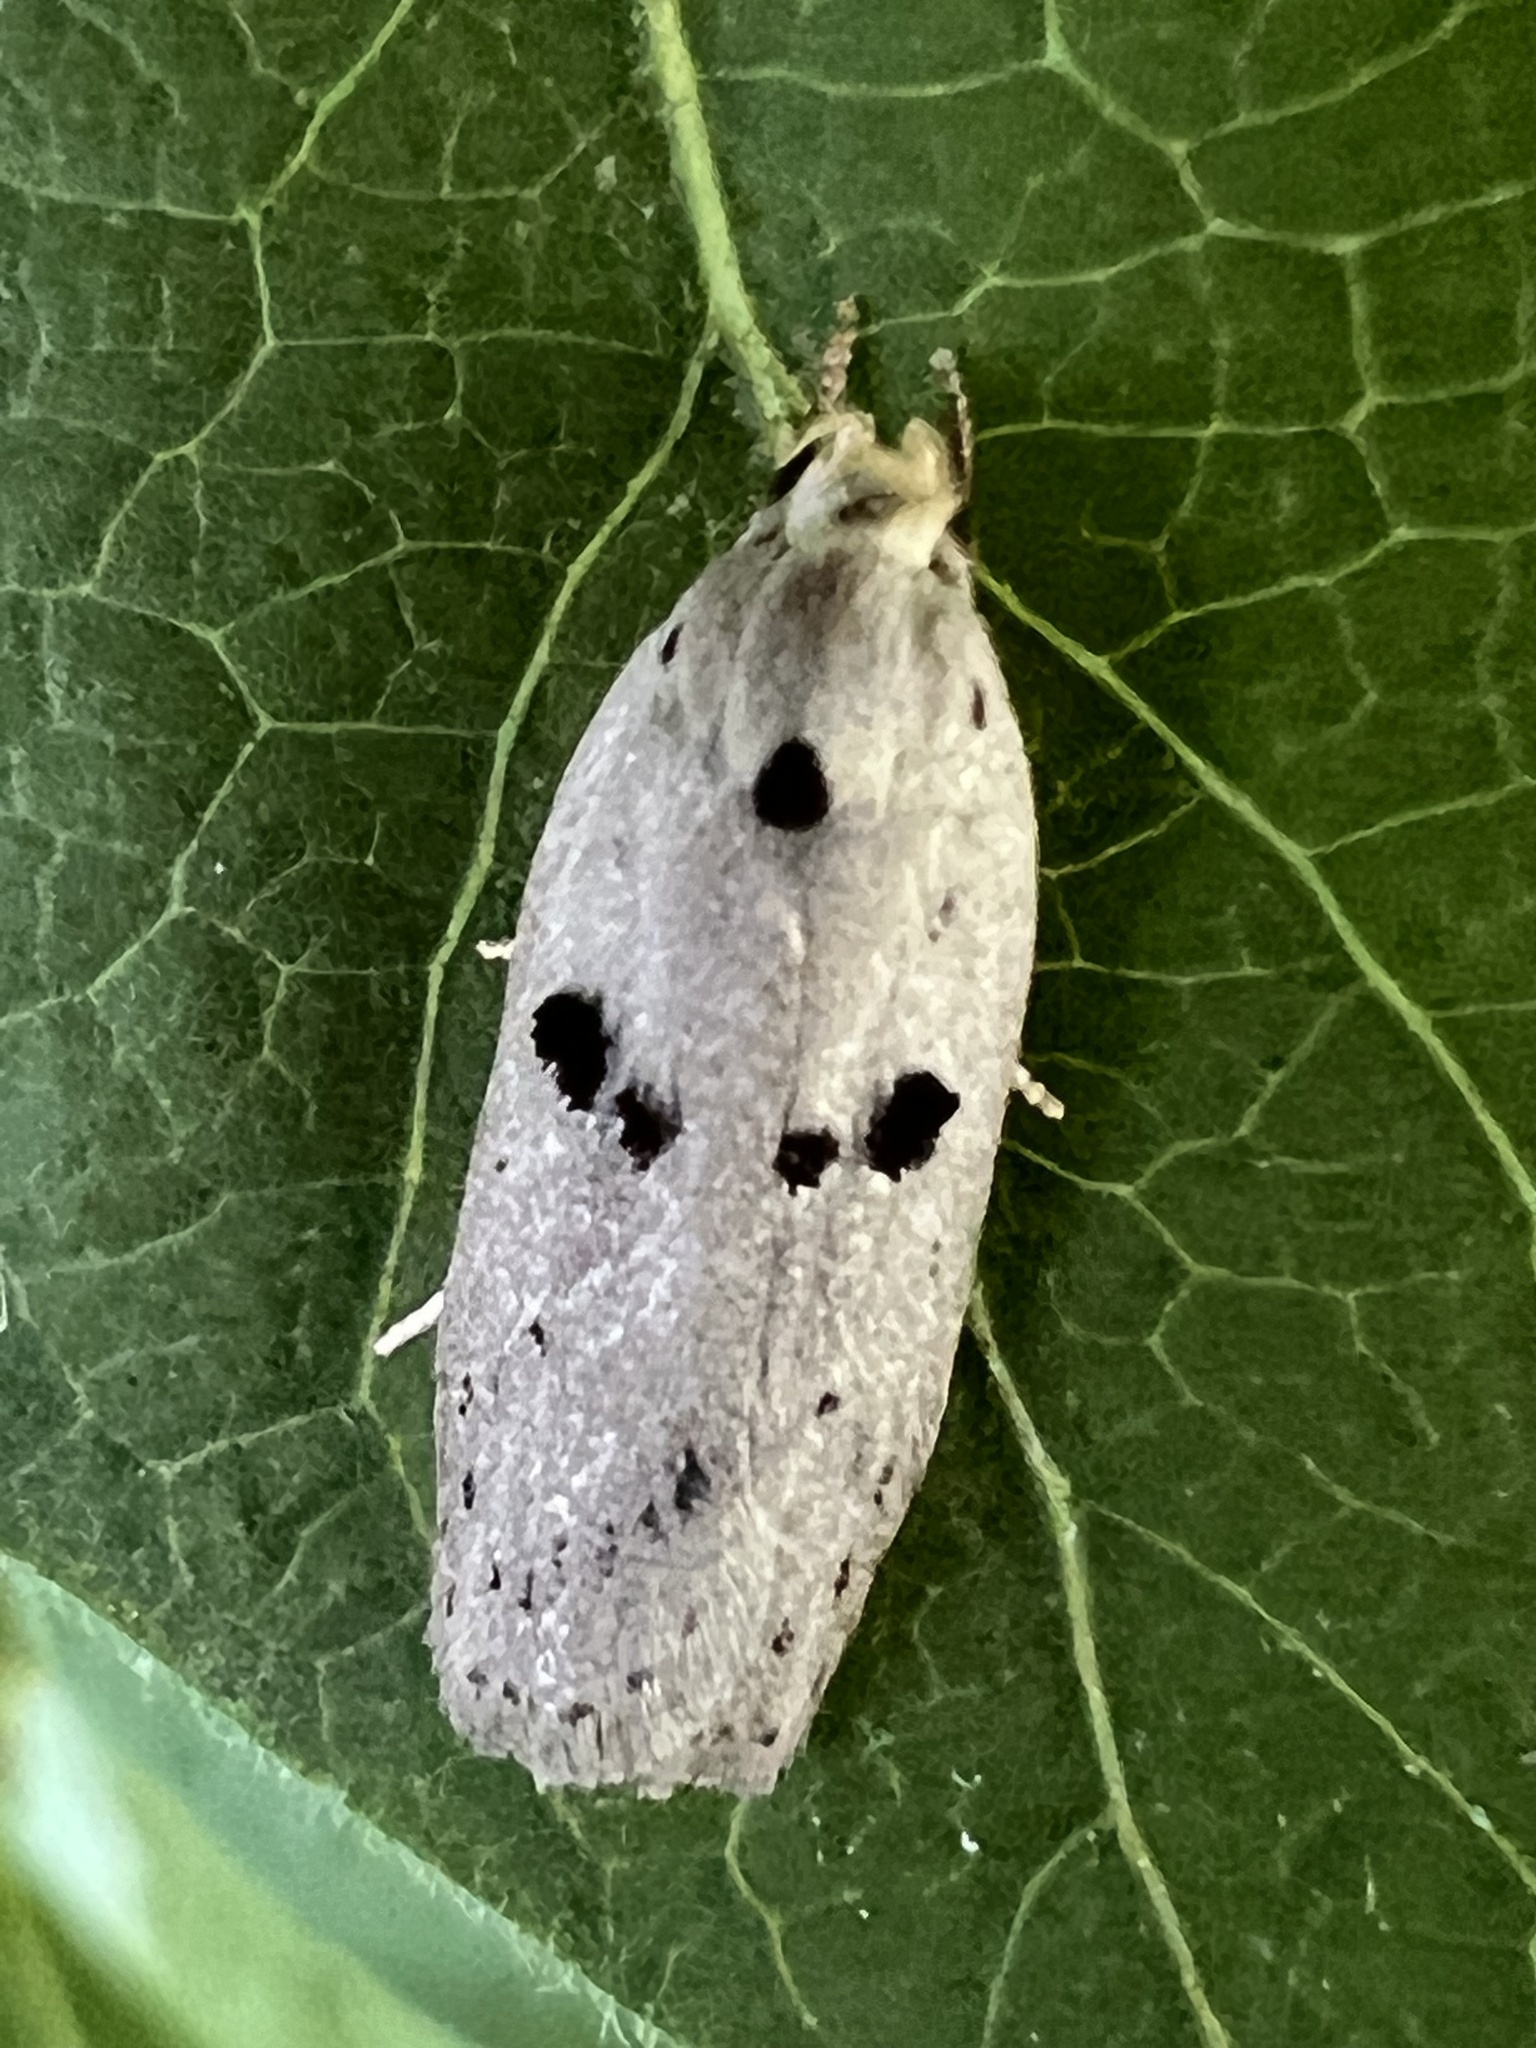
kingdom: Animalia
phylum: Arthropoda
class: Insecta
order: Lepidoptera
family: Peleopodidae
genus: Scythropiodes
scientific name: Scythropiodes issikii
